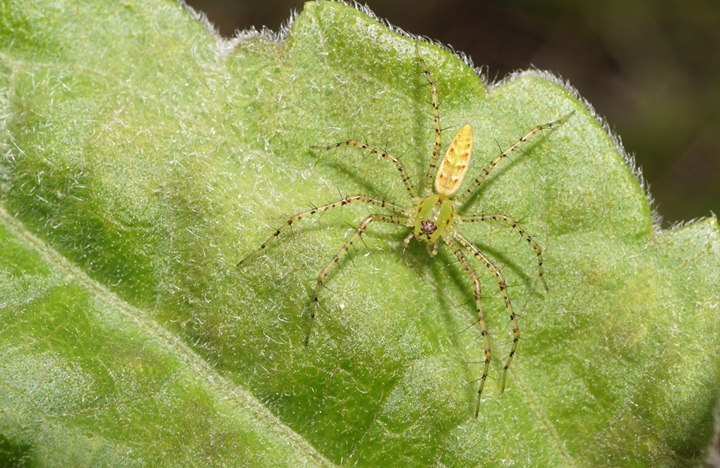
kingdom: Animalia
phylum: Arthropoda
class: Arachnida
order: Araneae
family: Oxyopidae
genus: Peucetia
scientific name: Peucetia viridans
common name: Lynx spiders
